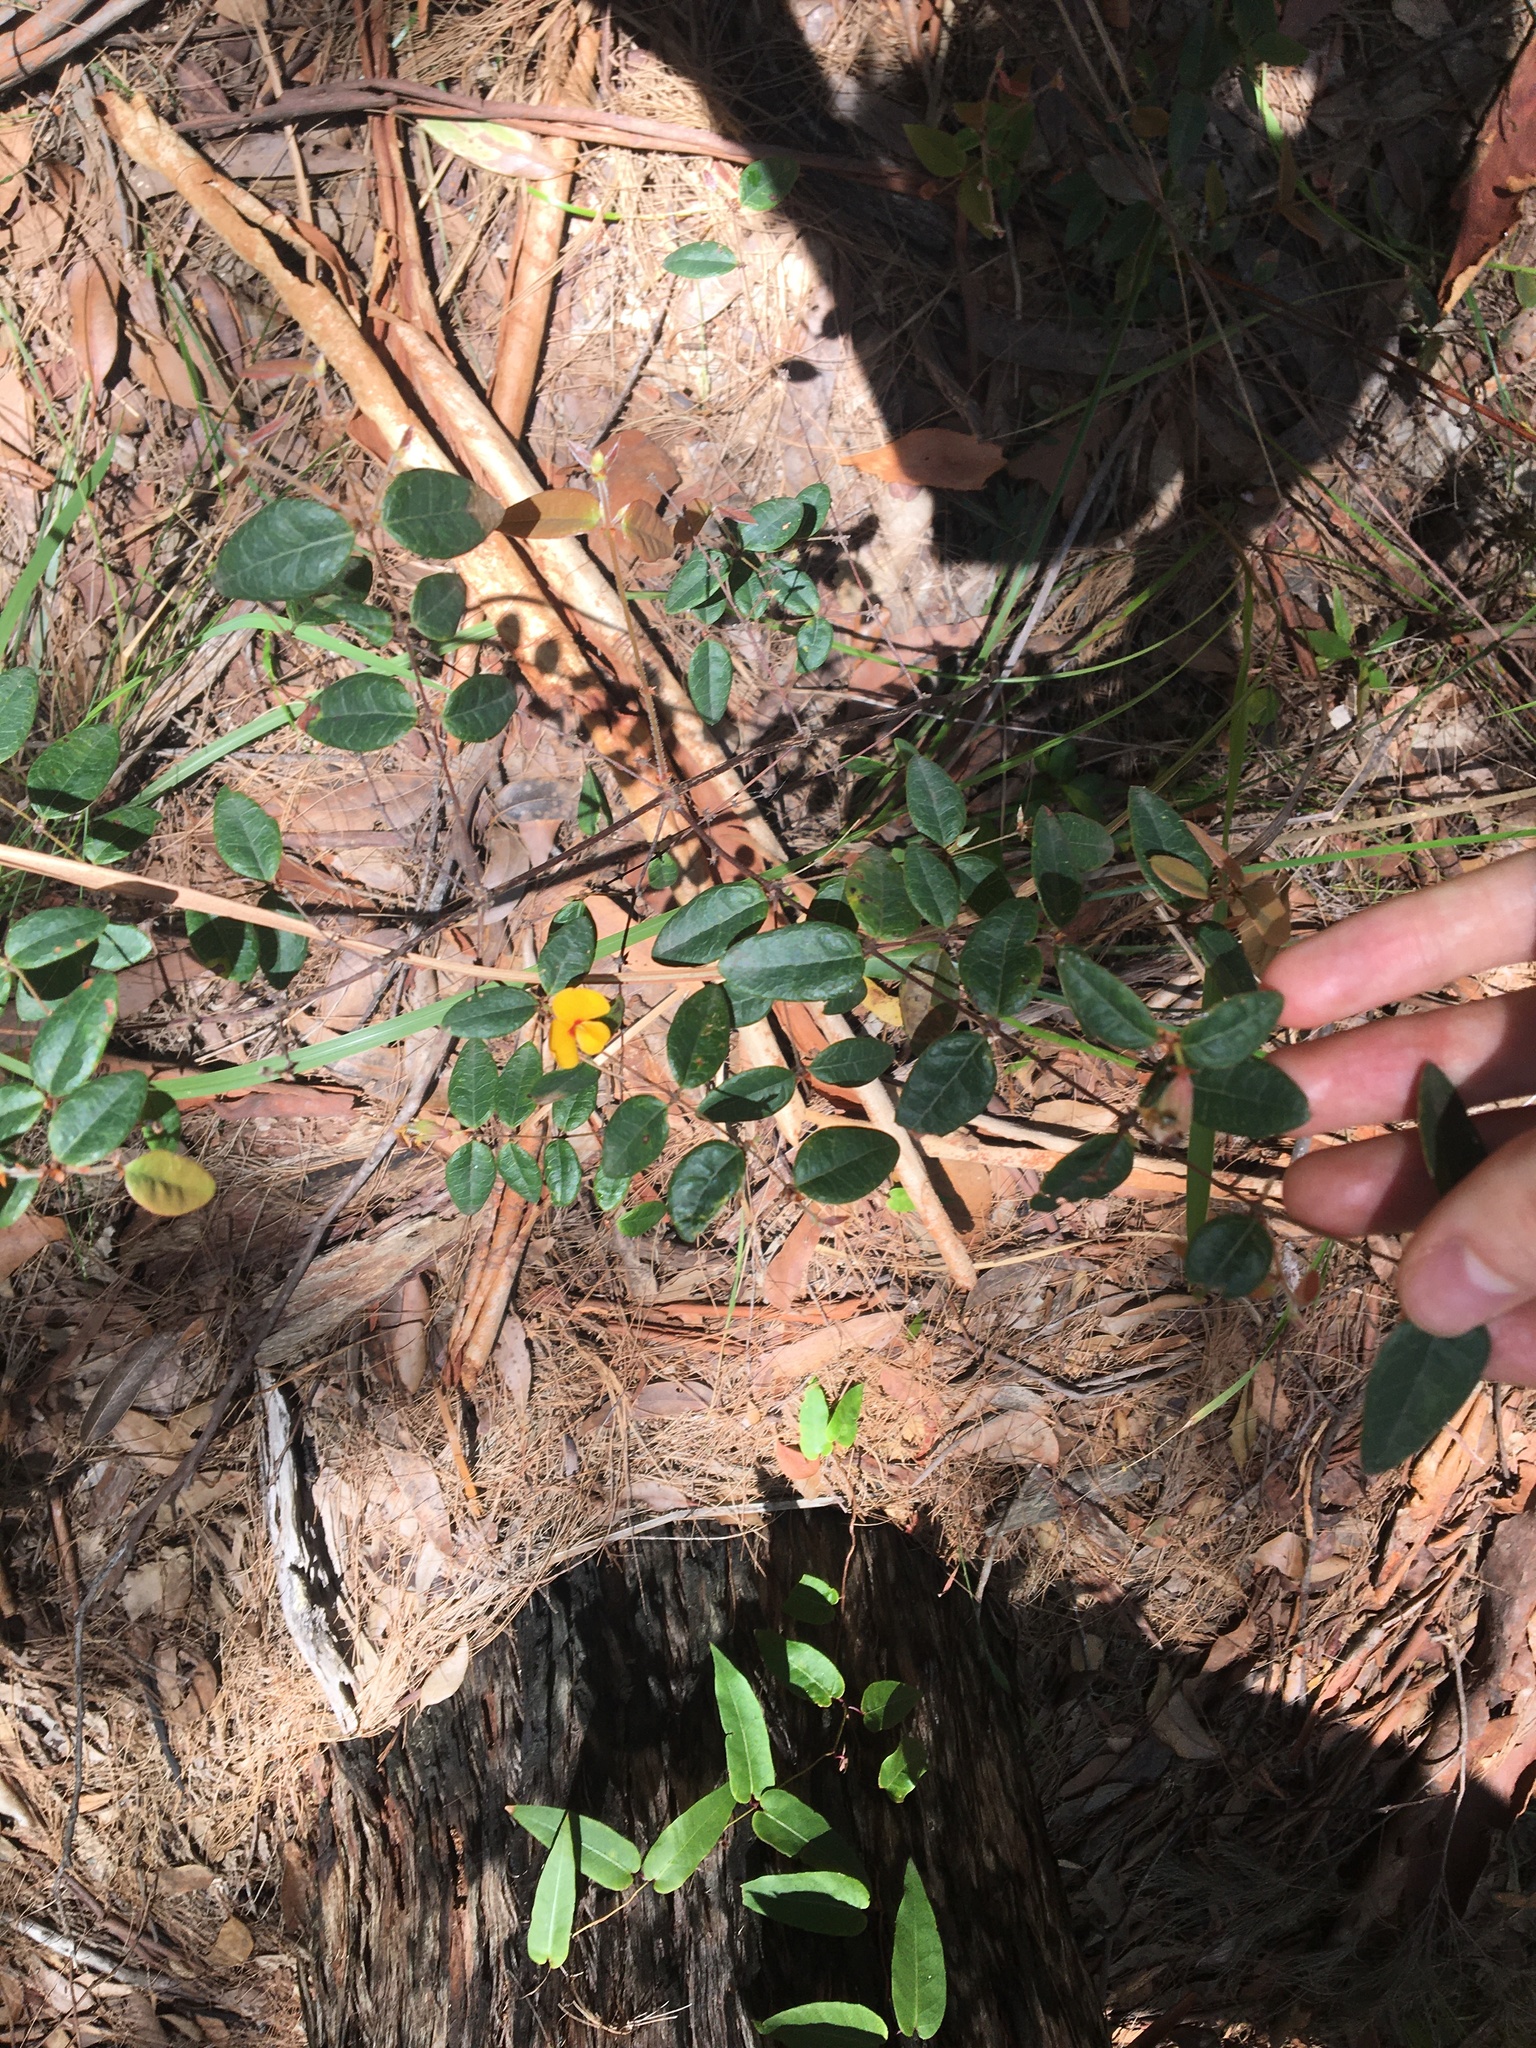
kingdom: Plantae
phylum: Tracheophyta
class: Magnoliopsida
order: Fabales
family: Fabaceae
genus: Platylobium
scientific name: Platylobium formosum
